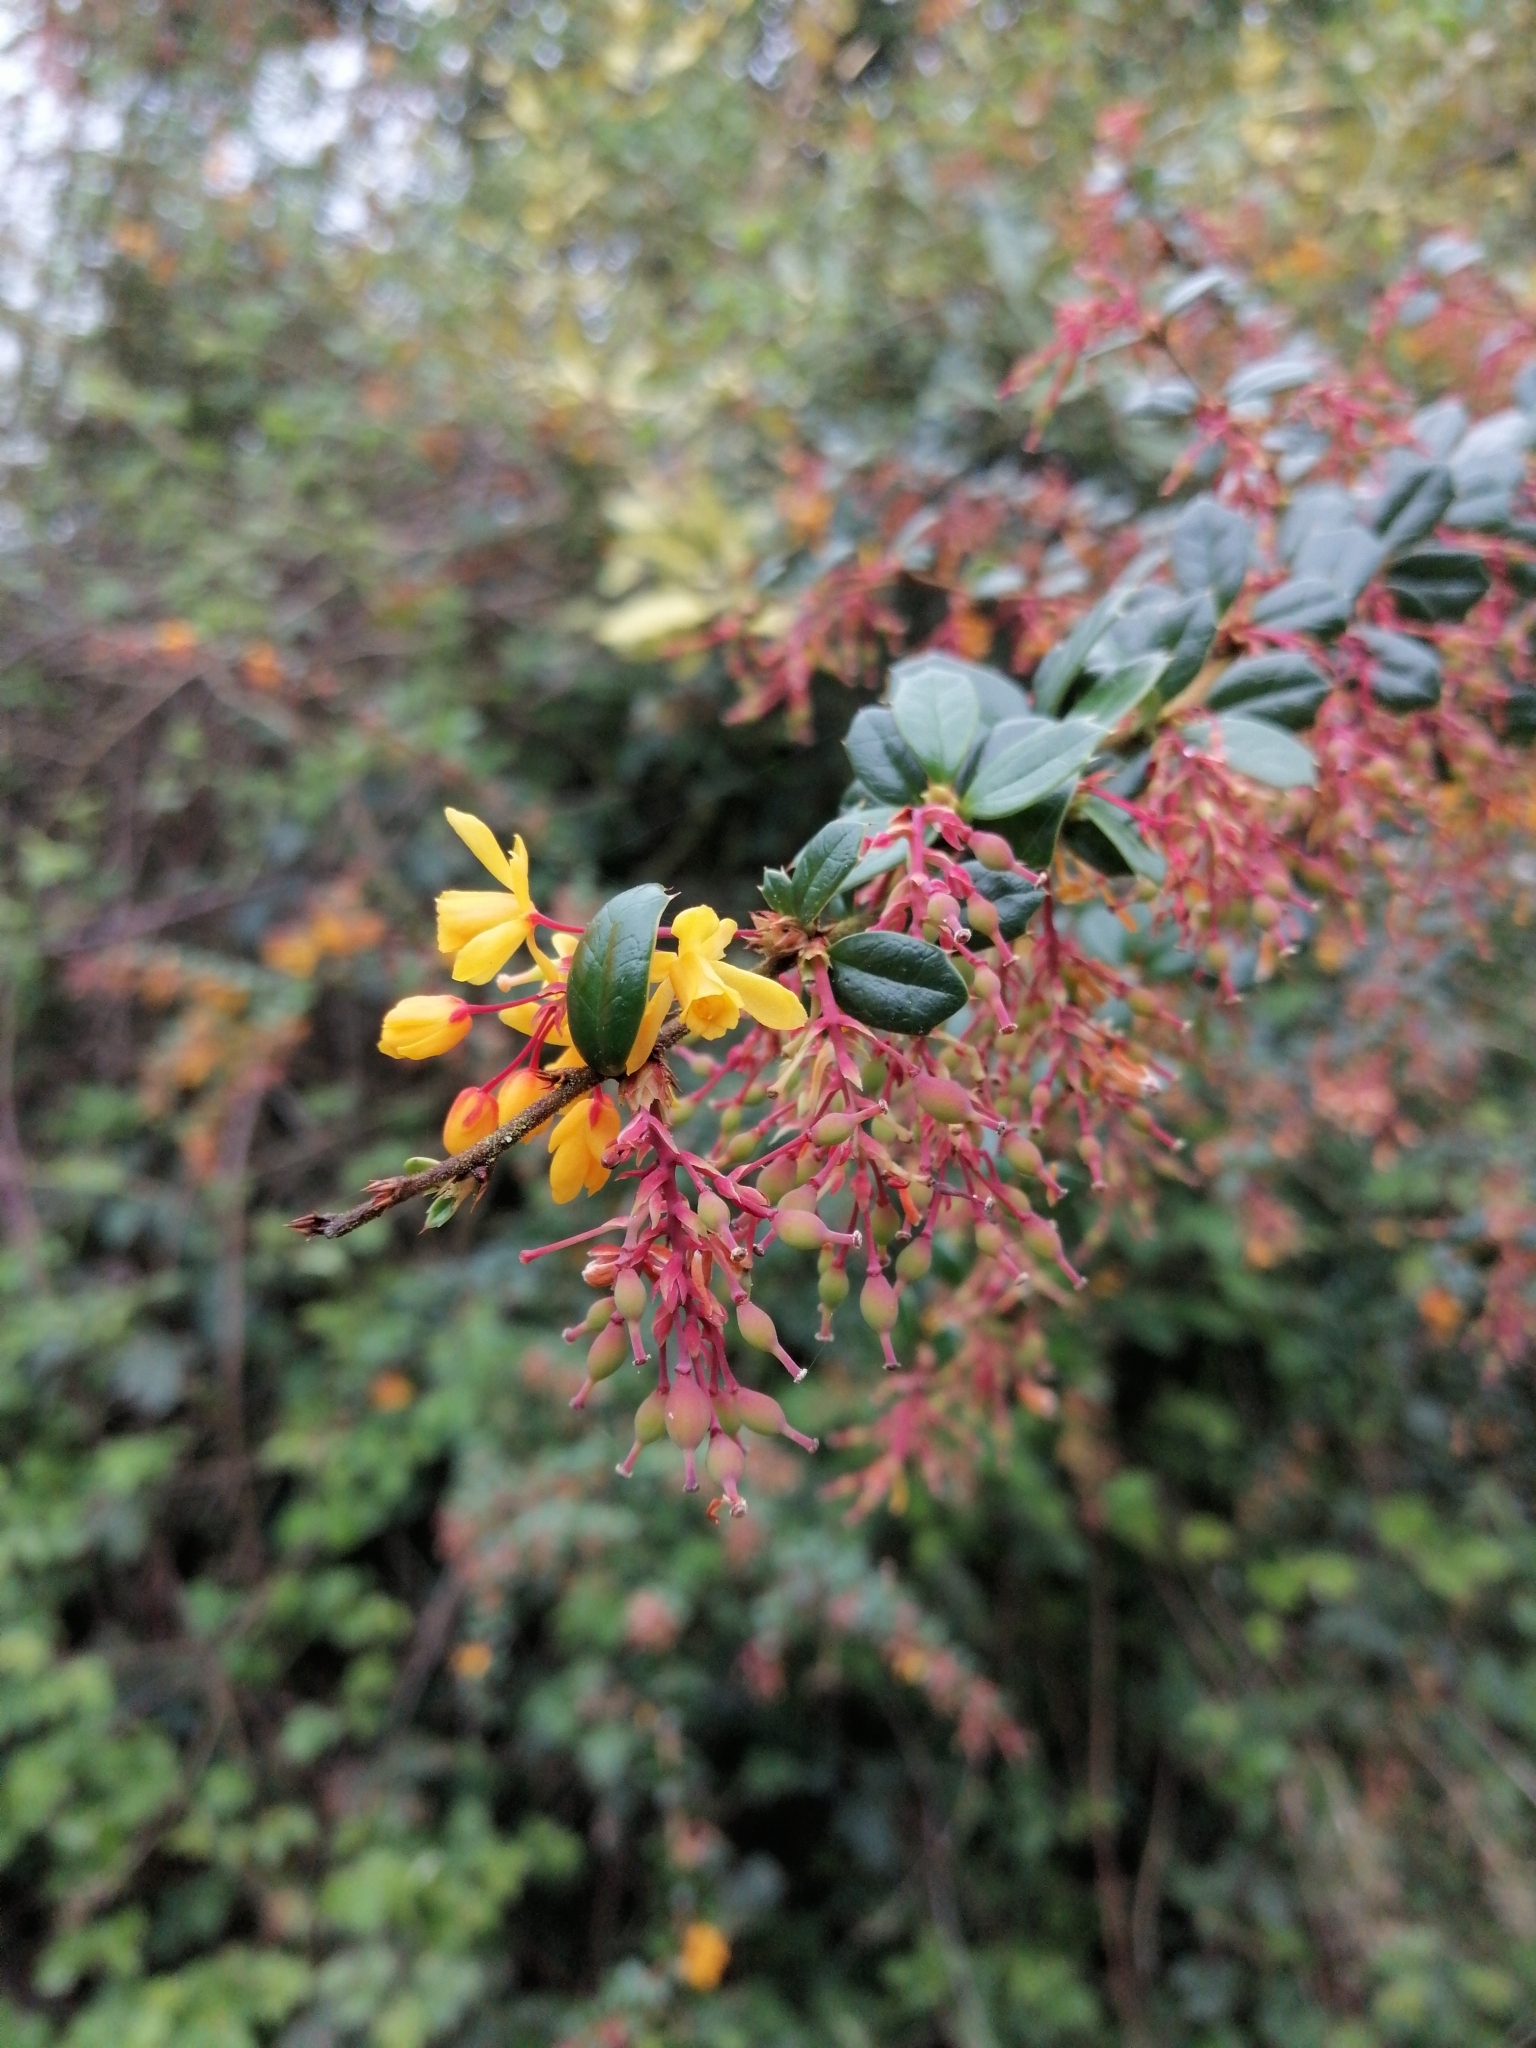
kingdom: Plantae
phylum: Tracheophyta
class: Magnoliopsida
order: Ranunculales
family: Berberidaceae
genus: Berberis
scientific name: Berberis darwinii
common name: Darwin's barberry
